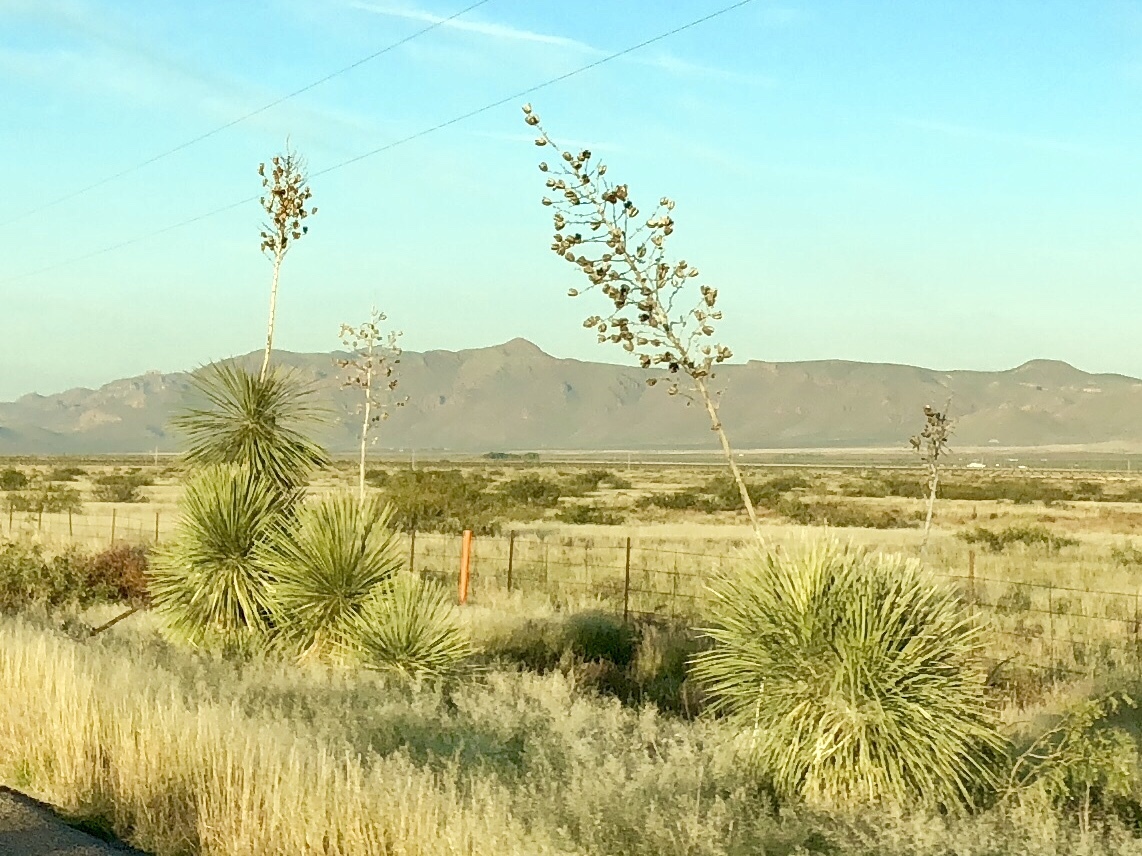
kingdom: Plantae
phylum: Tracheophyta
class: Liliopsida
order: Asparagales
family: Asparagaceae
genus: Yucca
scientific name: Yucca elata
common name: Palmella
